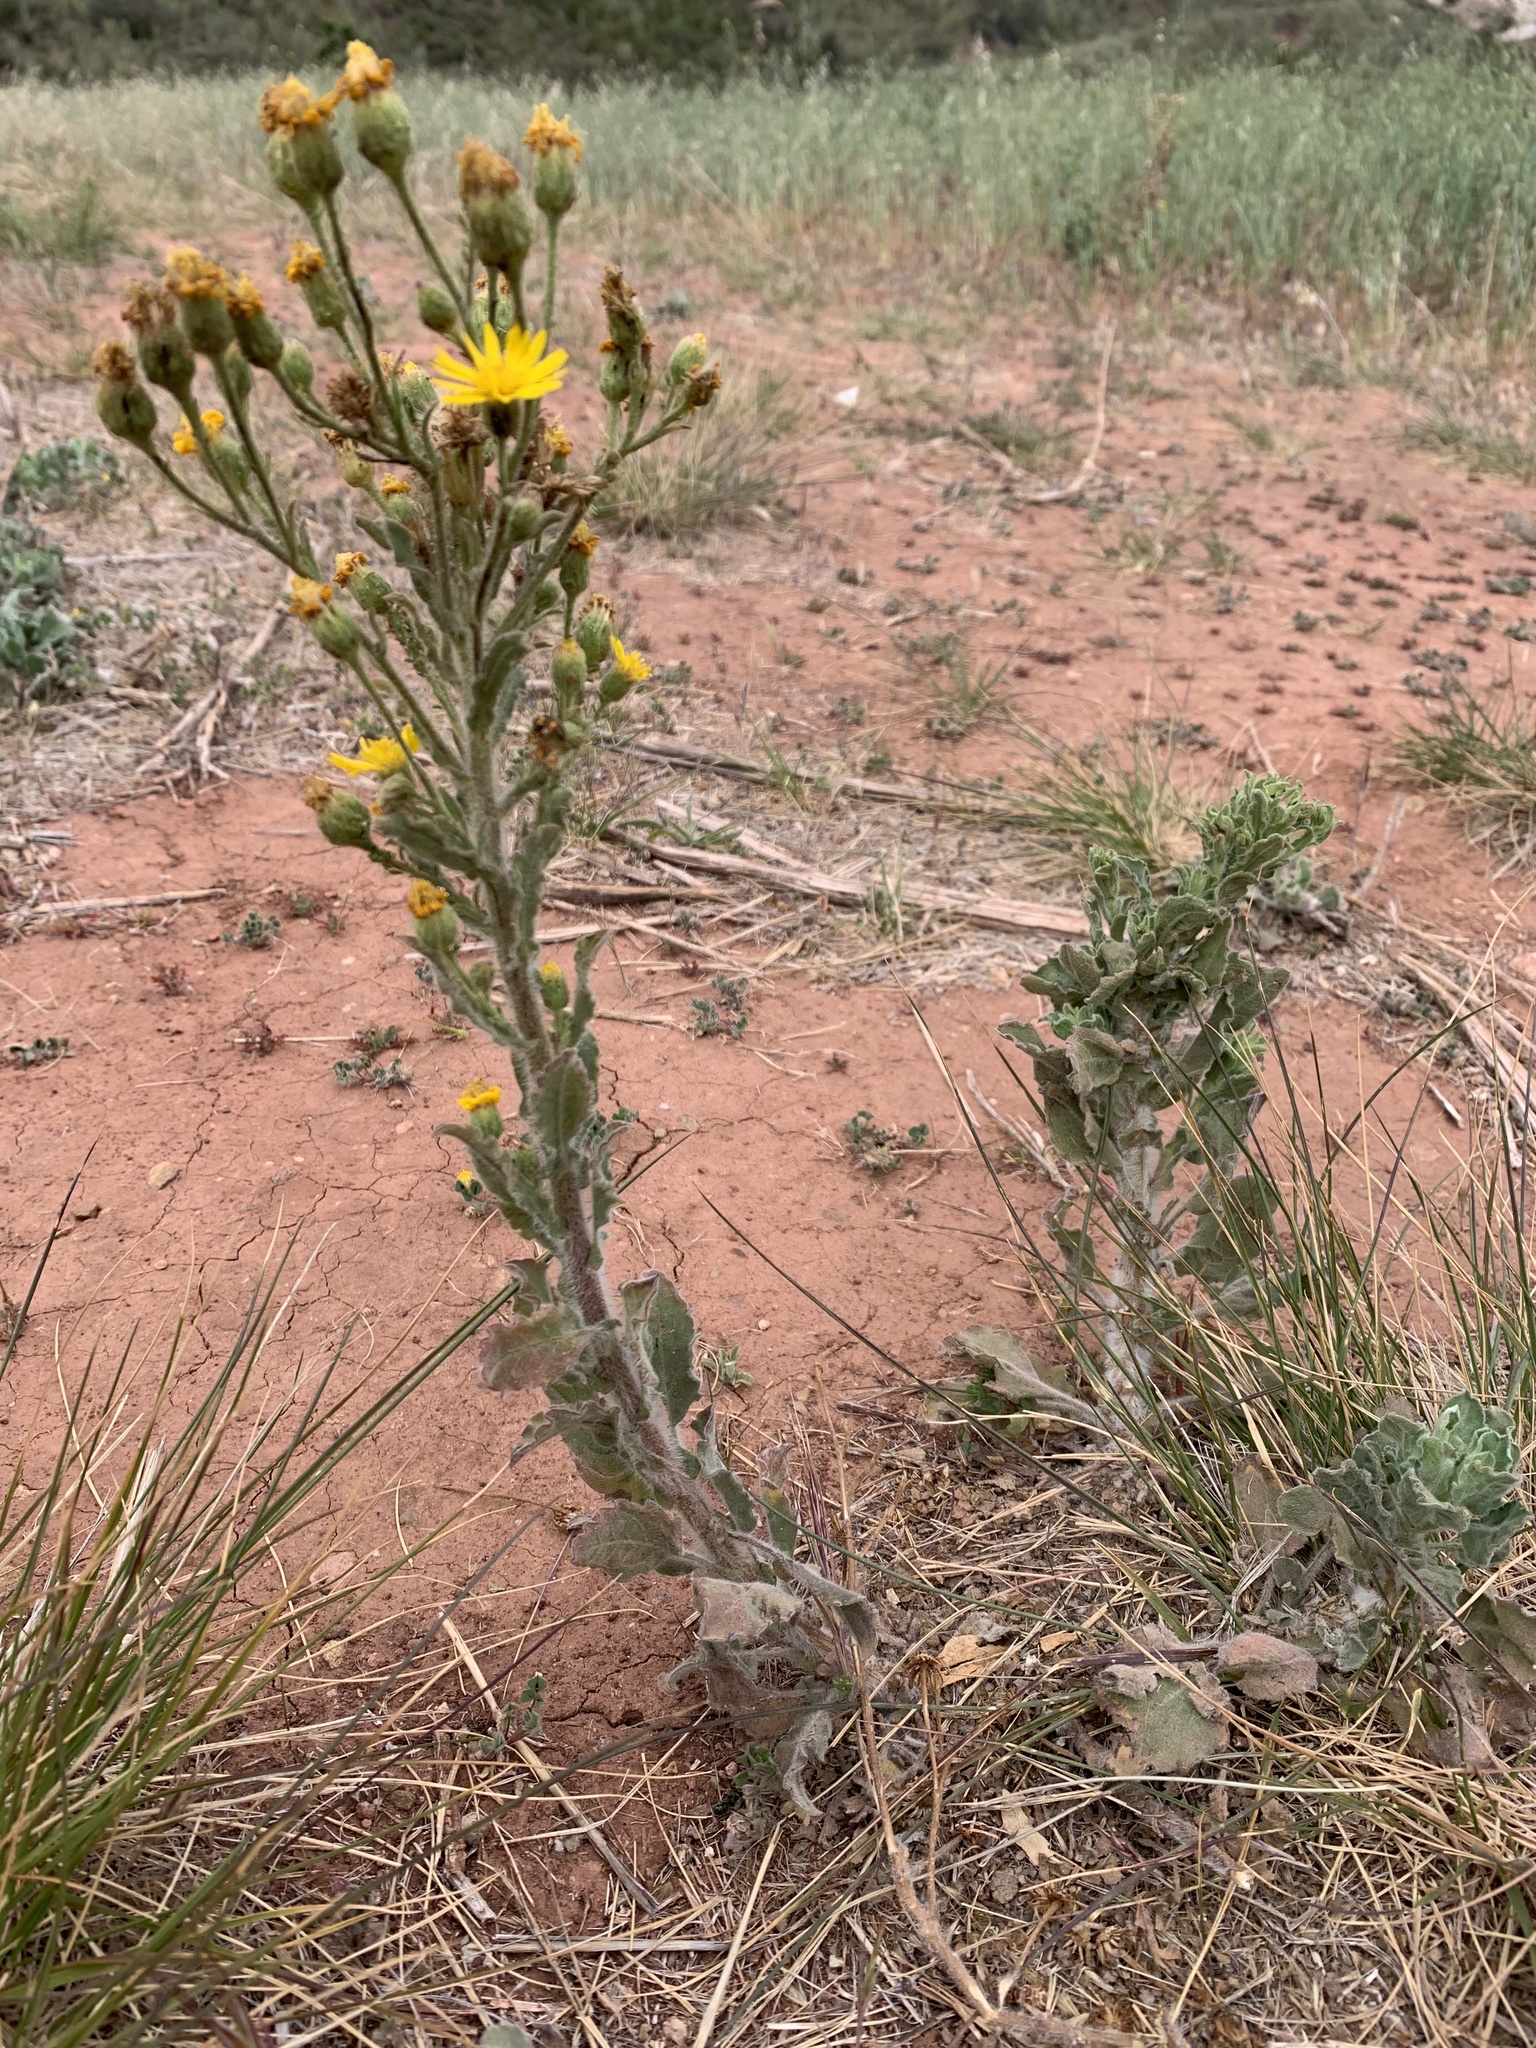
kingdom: Plantae
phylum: Tracheophyta
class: Magnoliopsida
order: Asterales
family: Asteraceae
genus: Heterotheca
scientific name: Heterotheca grandiflora
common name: Telegraphweed
